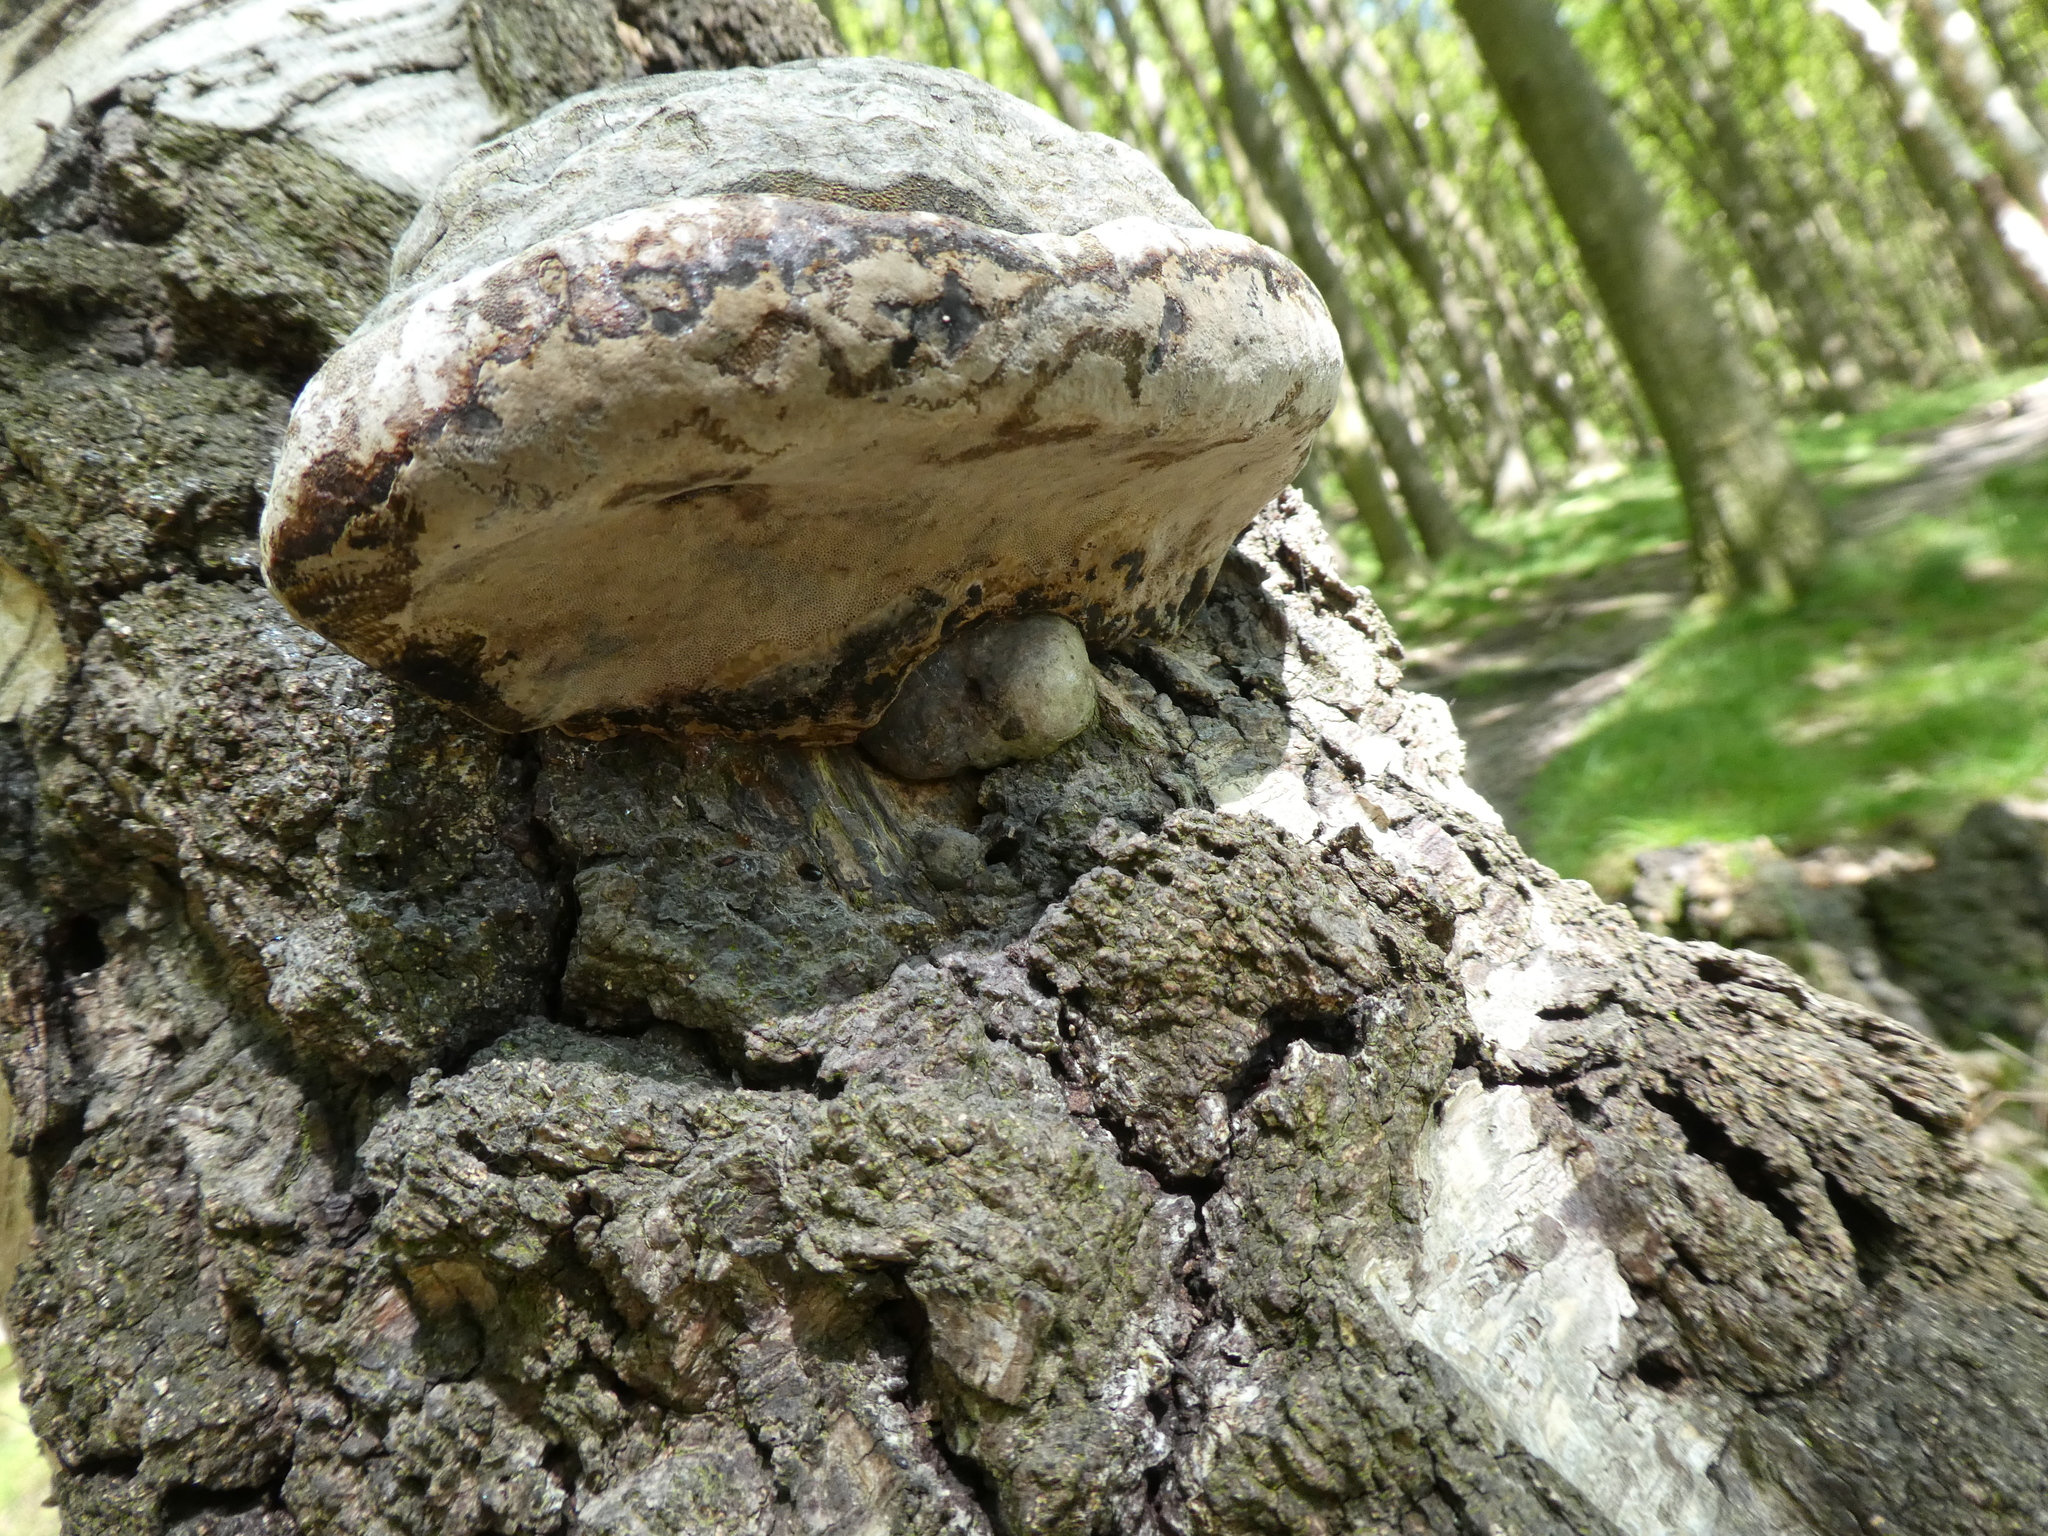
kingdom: Fungi
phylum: Basidiomycota
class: Agaricomycetes
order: Polyporales
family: Polyporaceae
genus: Fomes
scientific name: Fomes fomentarius
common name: Hoof fungus
